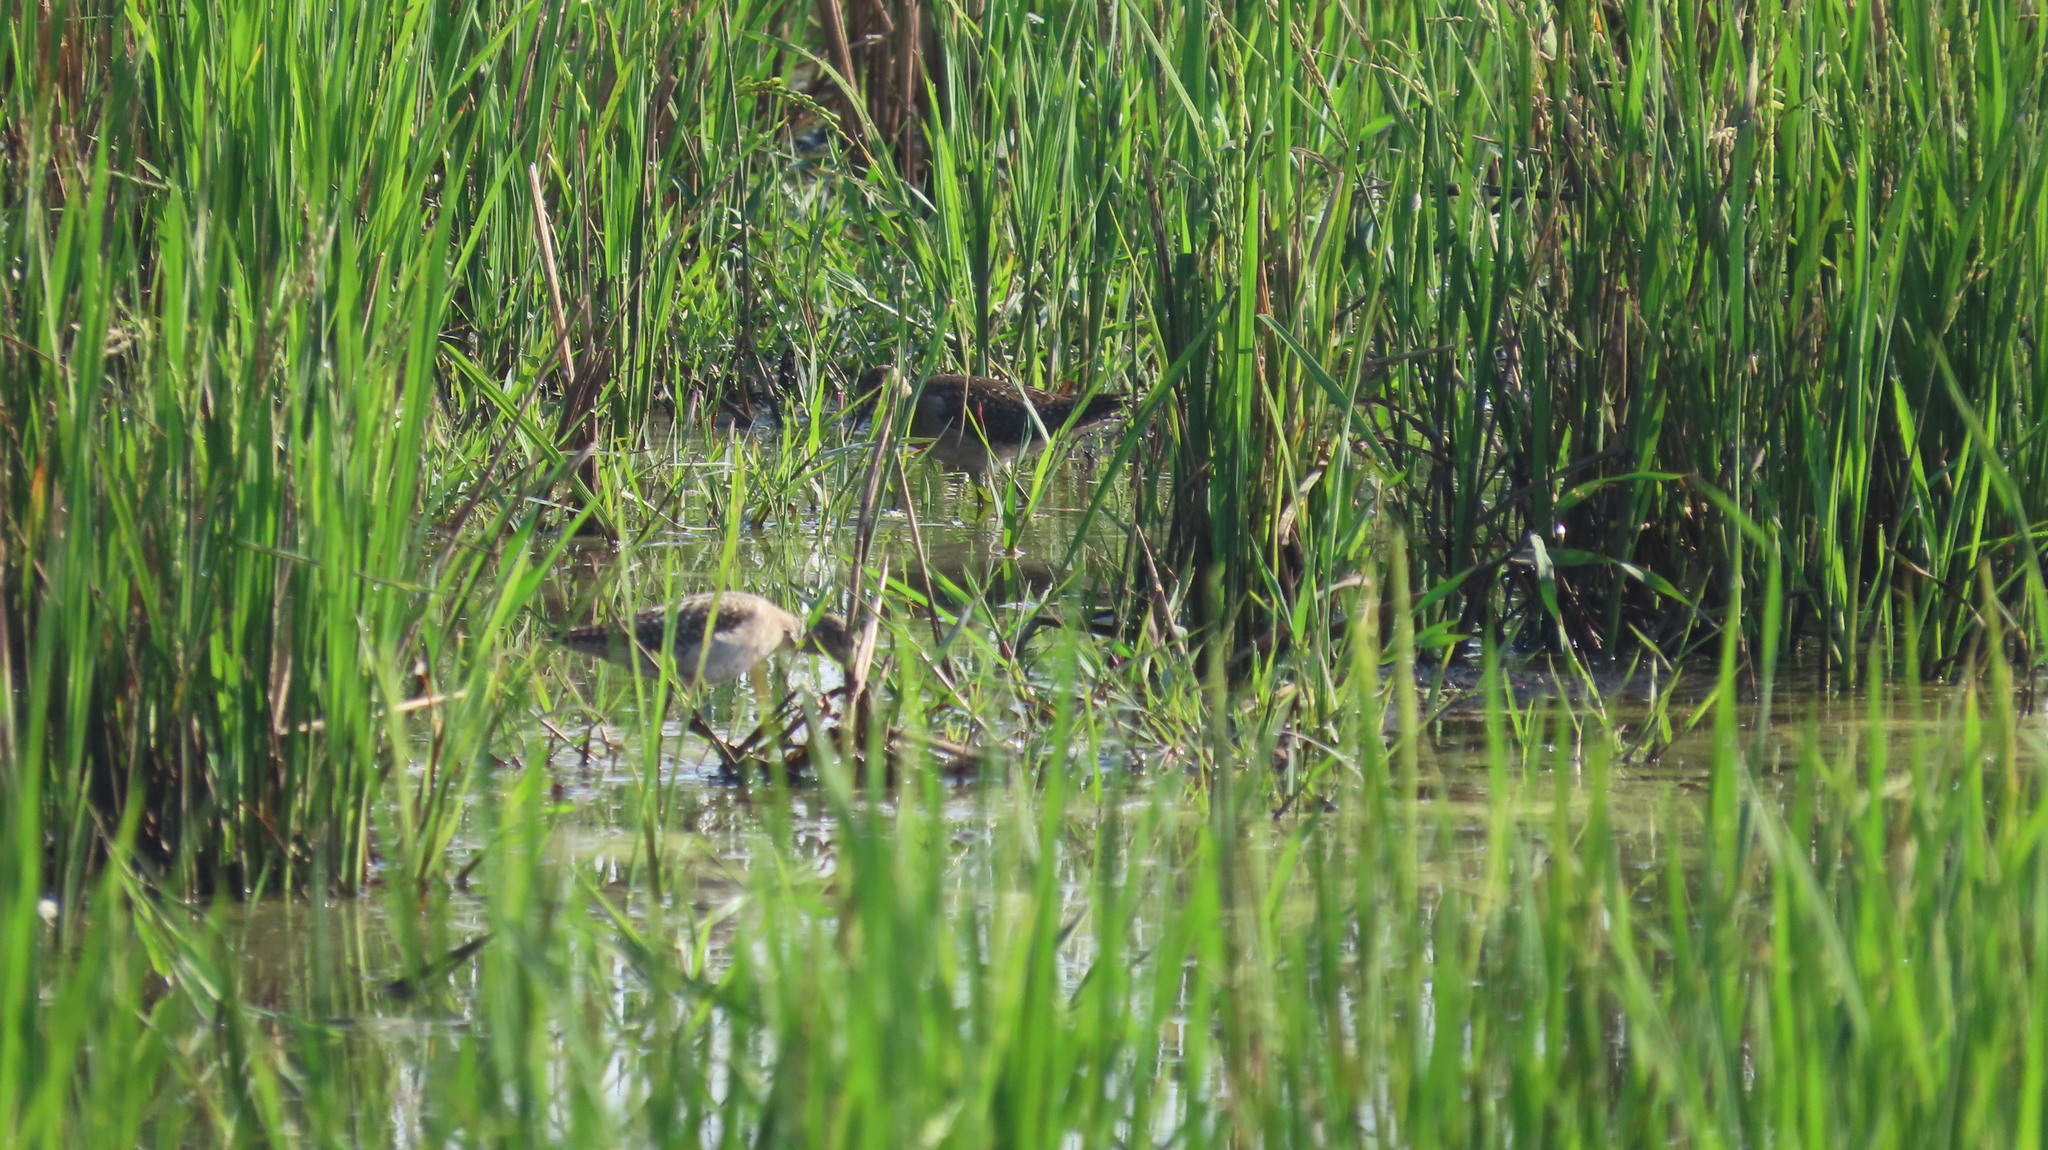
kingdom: Animalia
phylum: Chordata
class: Aves
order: Charadriiformes
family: Scolopacidae
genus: Tringa
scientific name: Tringa glareola
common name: Wood sandpiper
